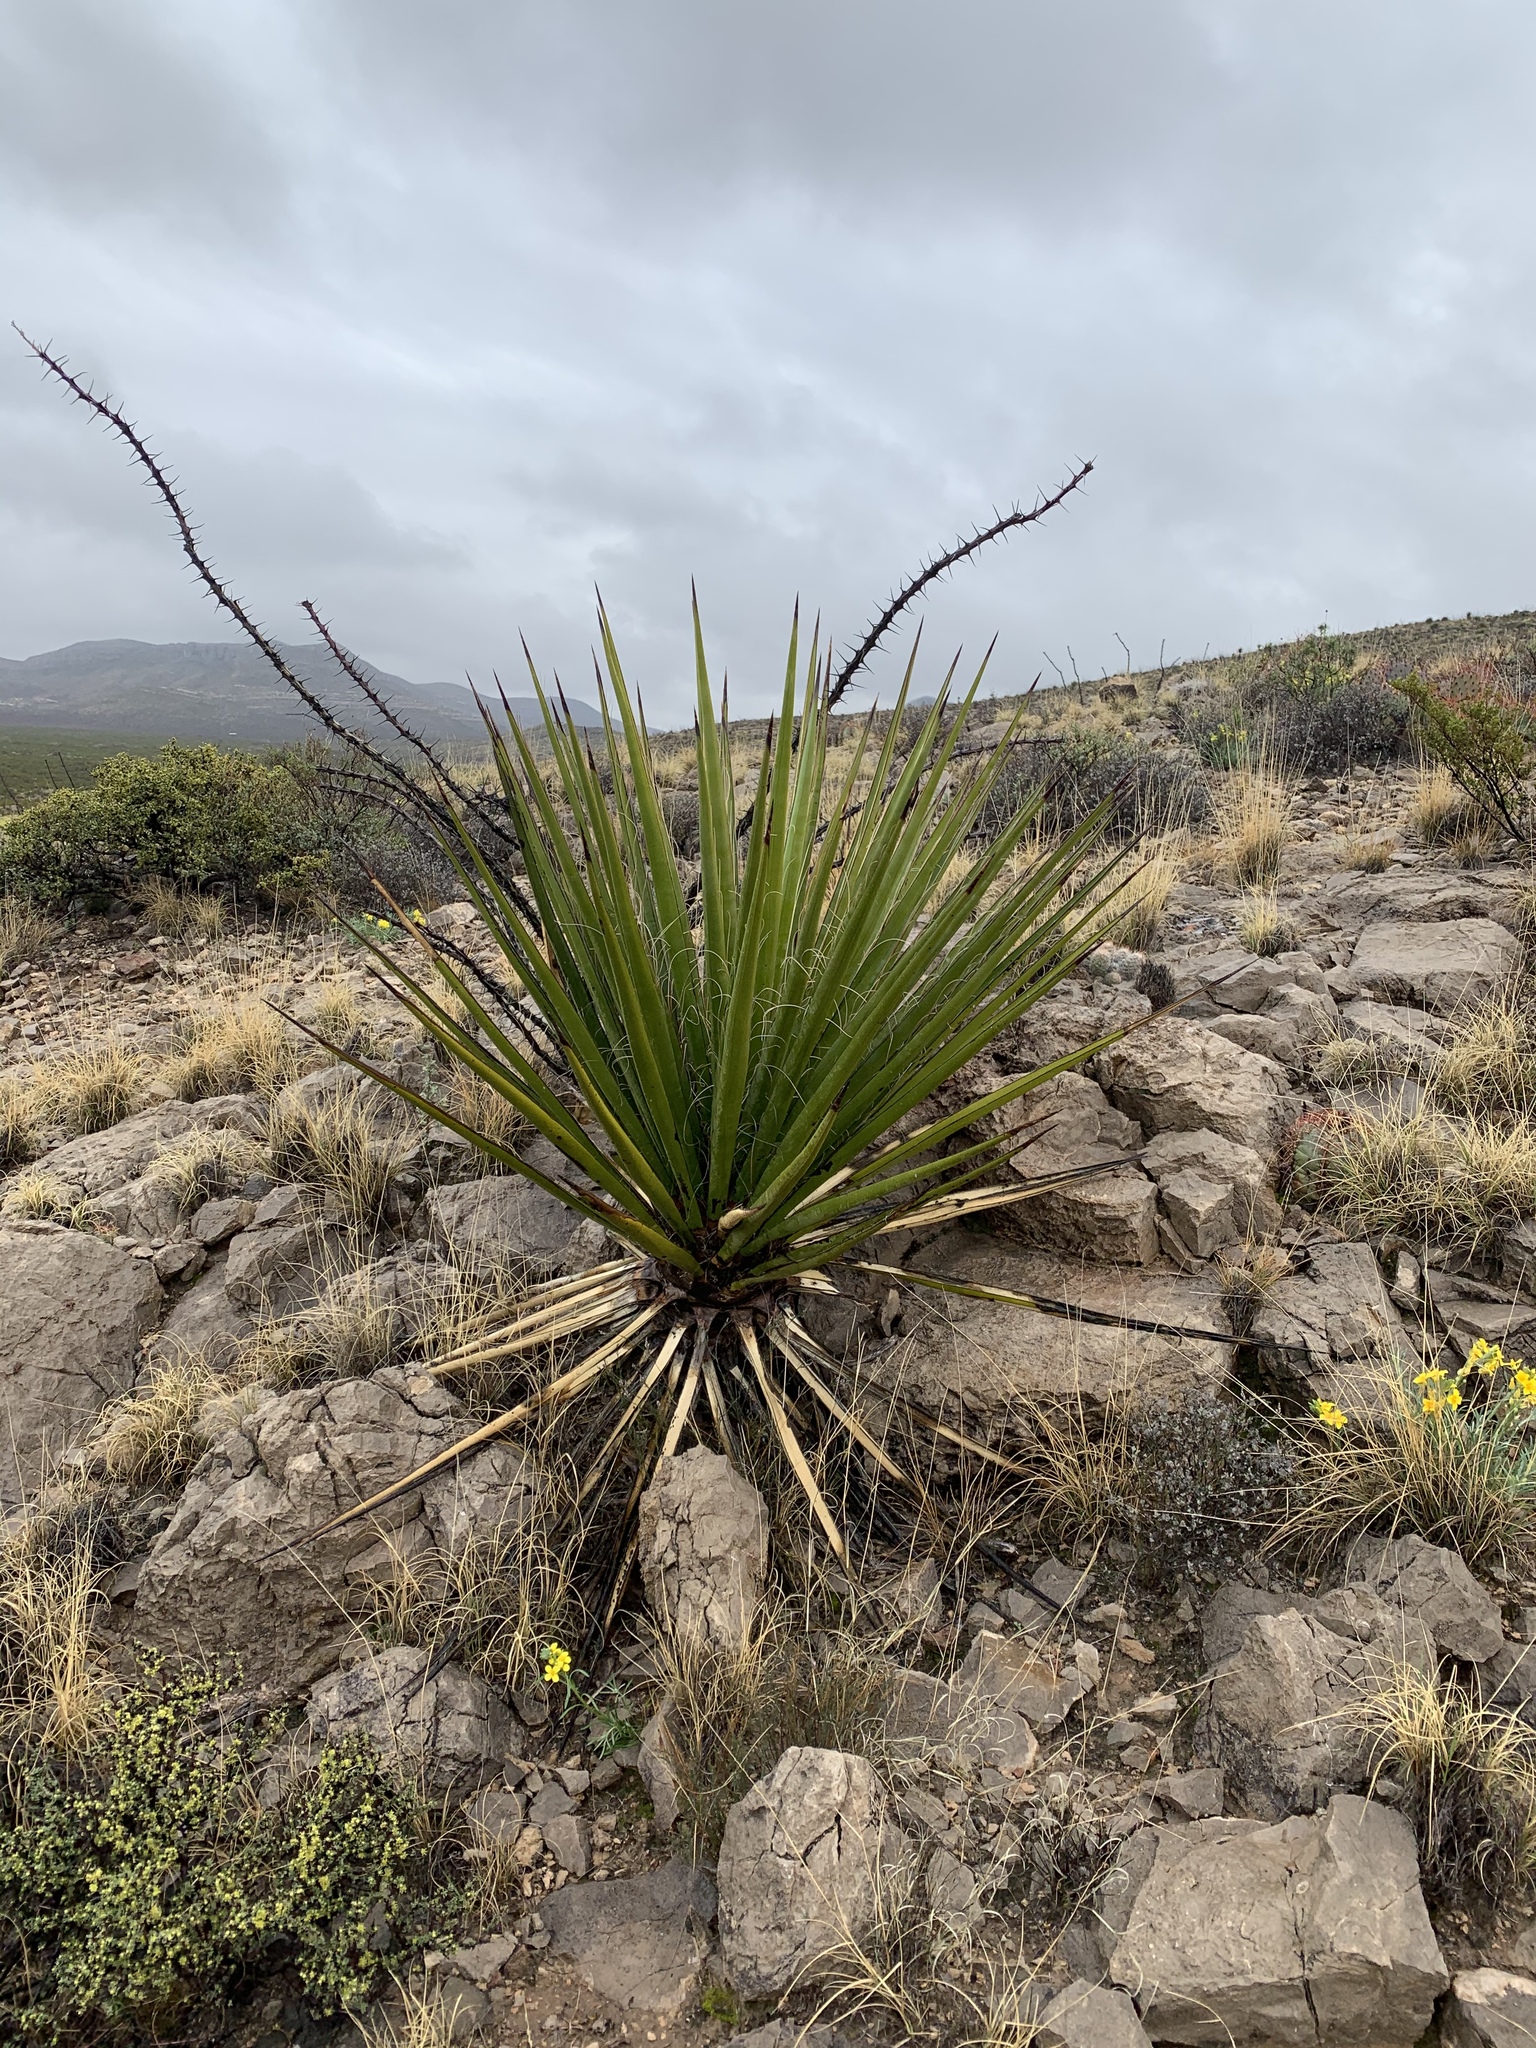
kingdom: Plantae
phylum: Tracheophyta
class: Liliopsida
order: Asparagales
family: Asparagaceae
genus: Yucca
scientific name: Yucca treculiana
